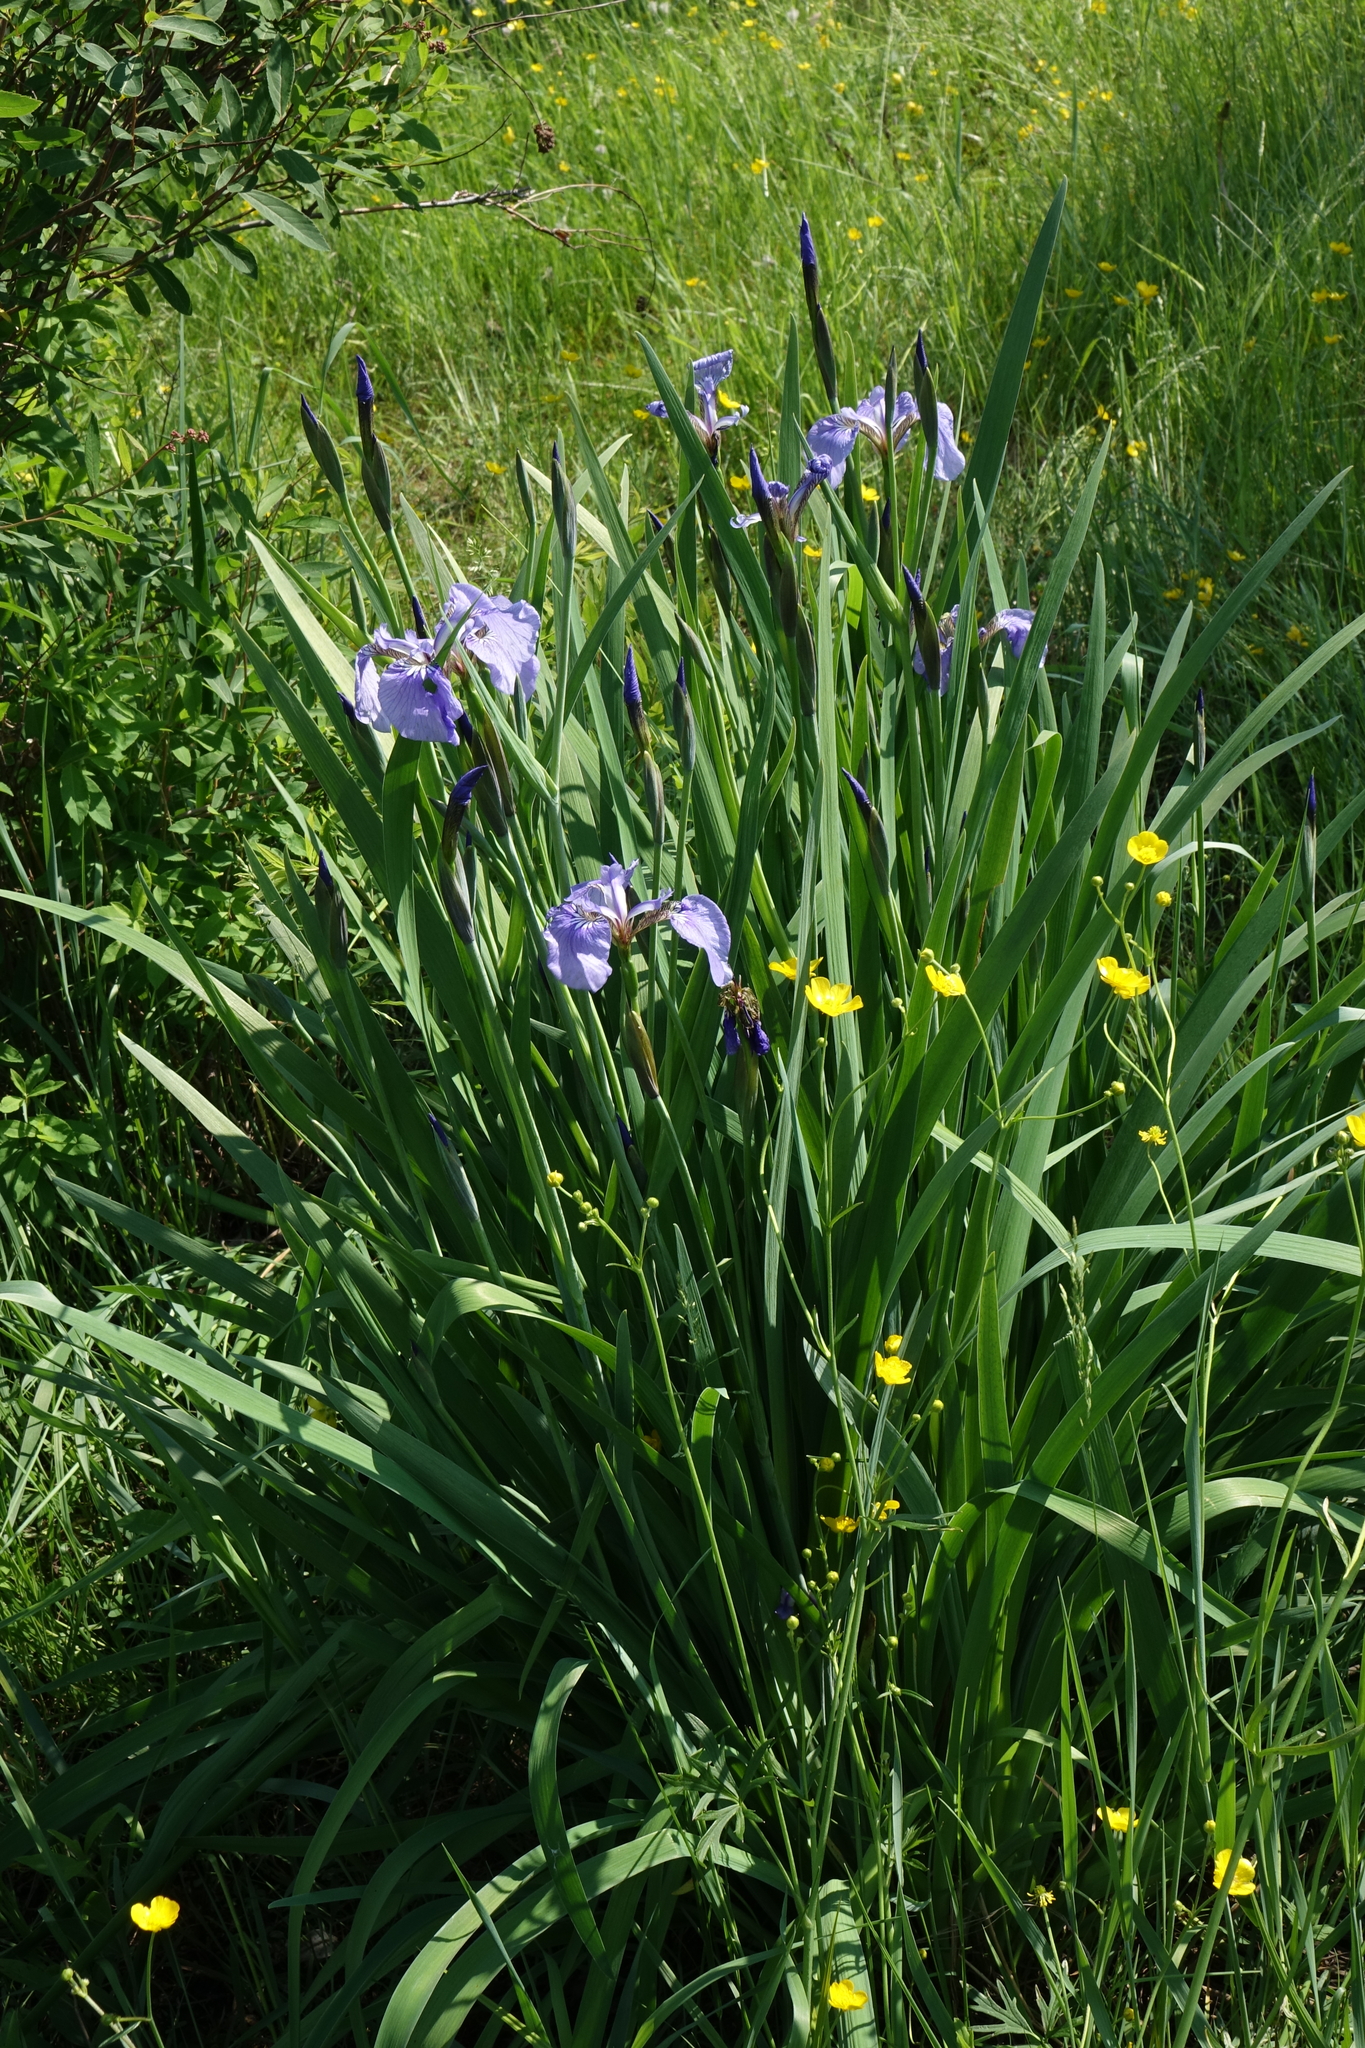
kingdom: Plantae
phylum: Tracheophyta
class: Liliopsida
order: Asparagales
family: Iridaceae
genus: Iris
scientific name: Iris setosa
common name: Arctic blue flag
